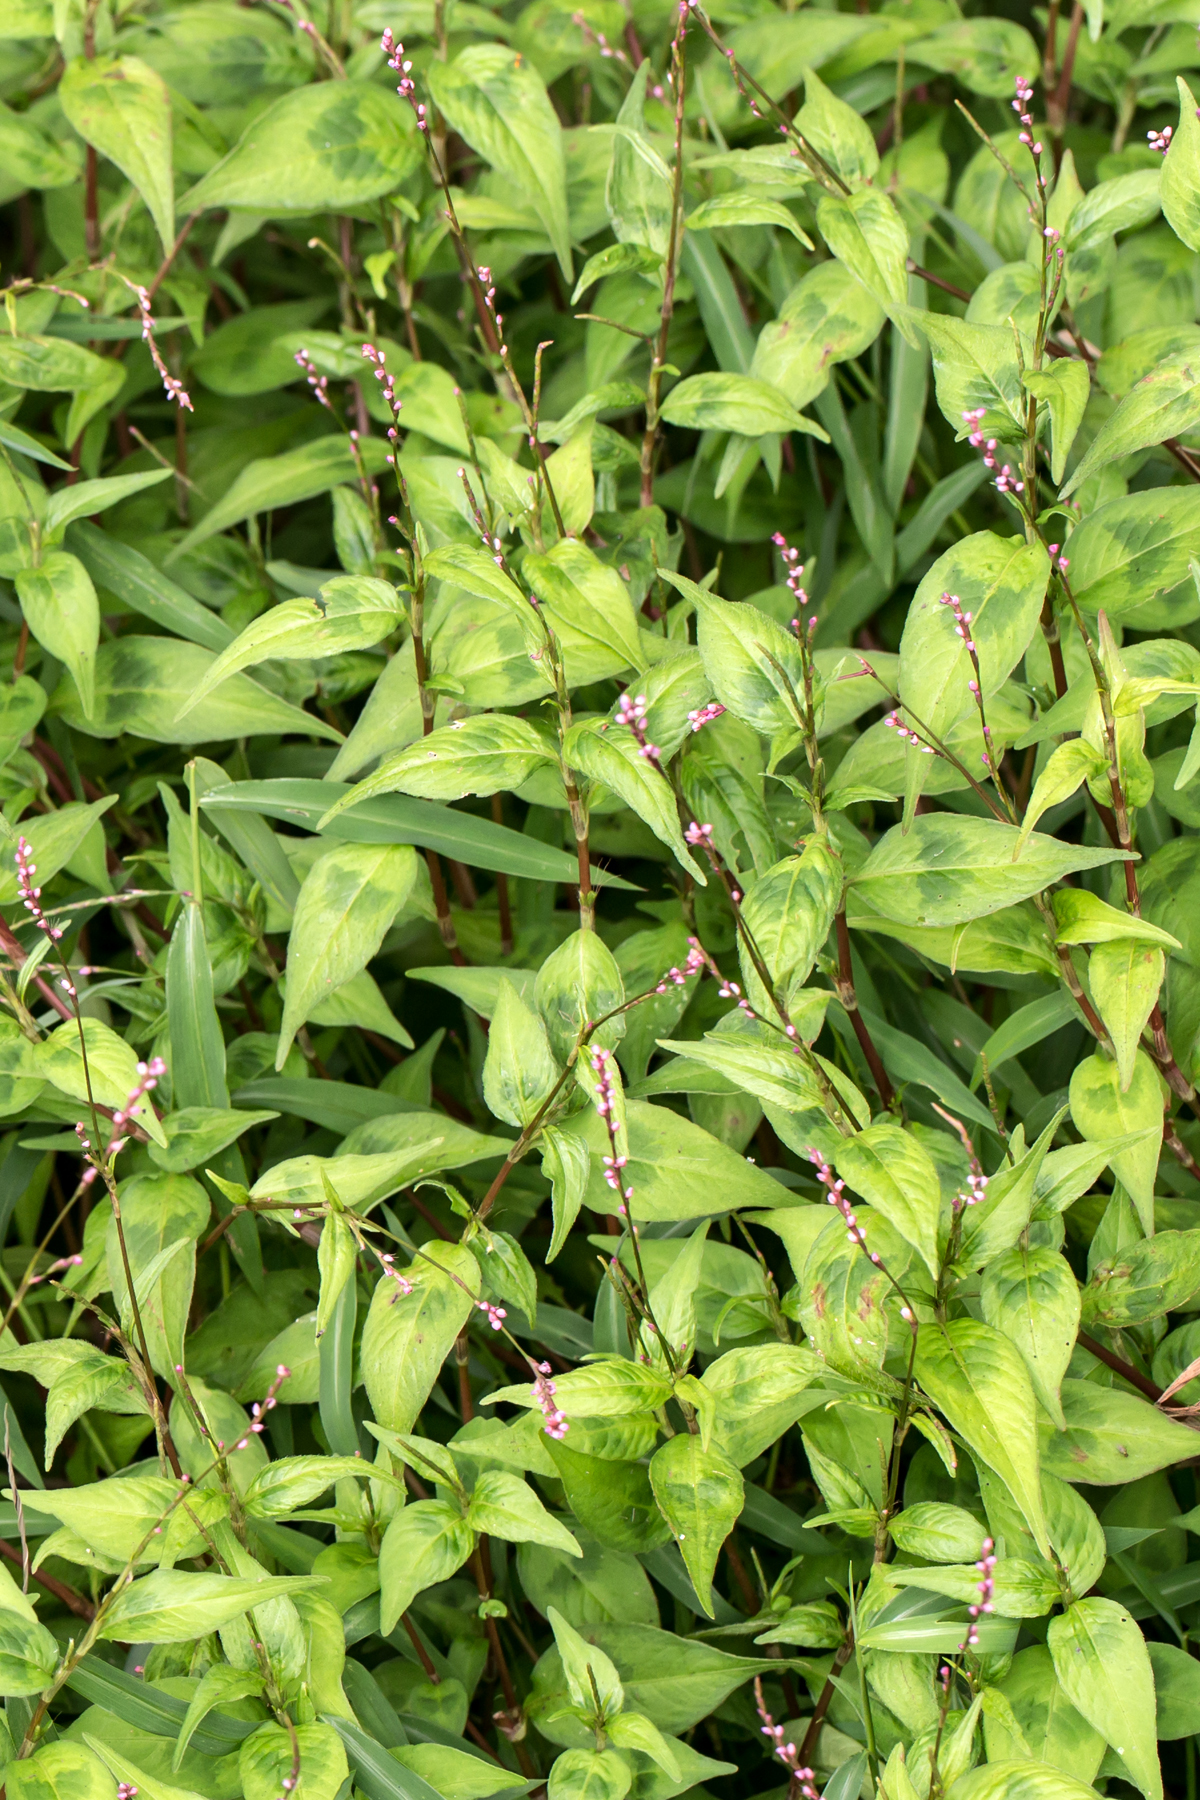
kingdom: Plantae
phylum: Tracheophyta
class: Magnoliopsida
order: Caryophyllales
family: Polygonaceae
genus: Persicaria
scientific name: Persicaria posumbu
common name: Oriental lady's thumb
